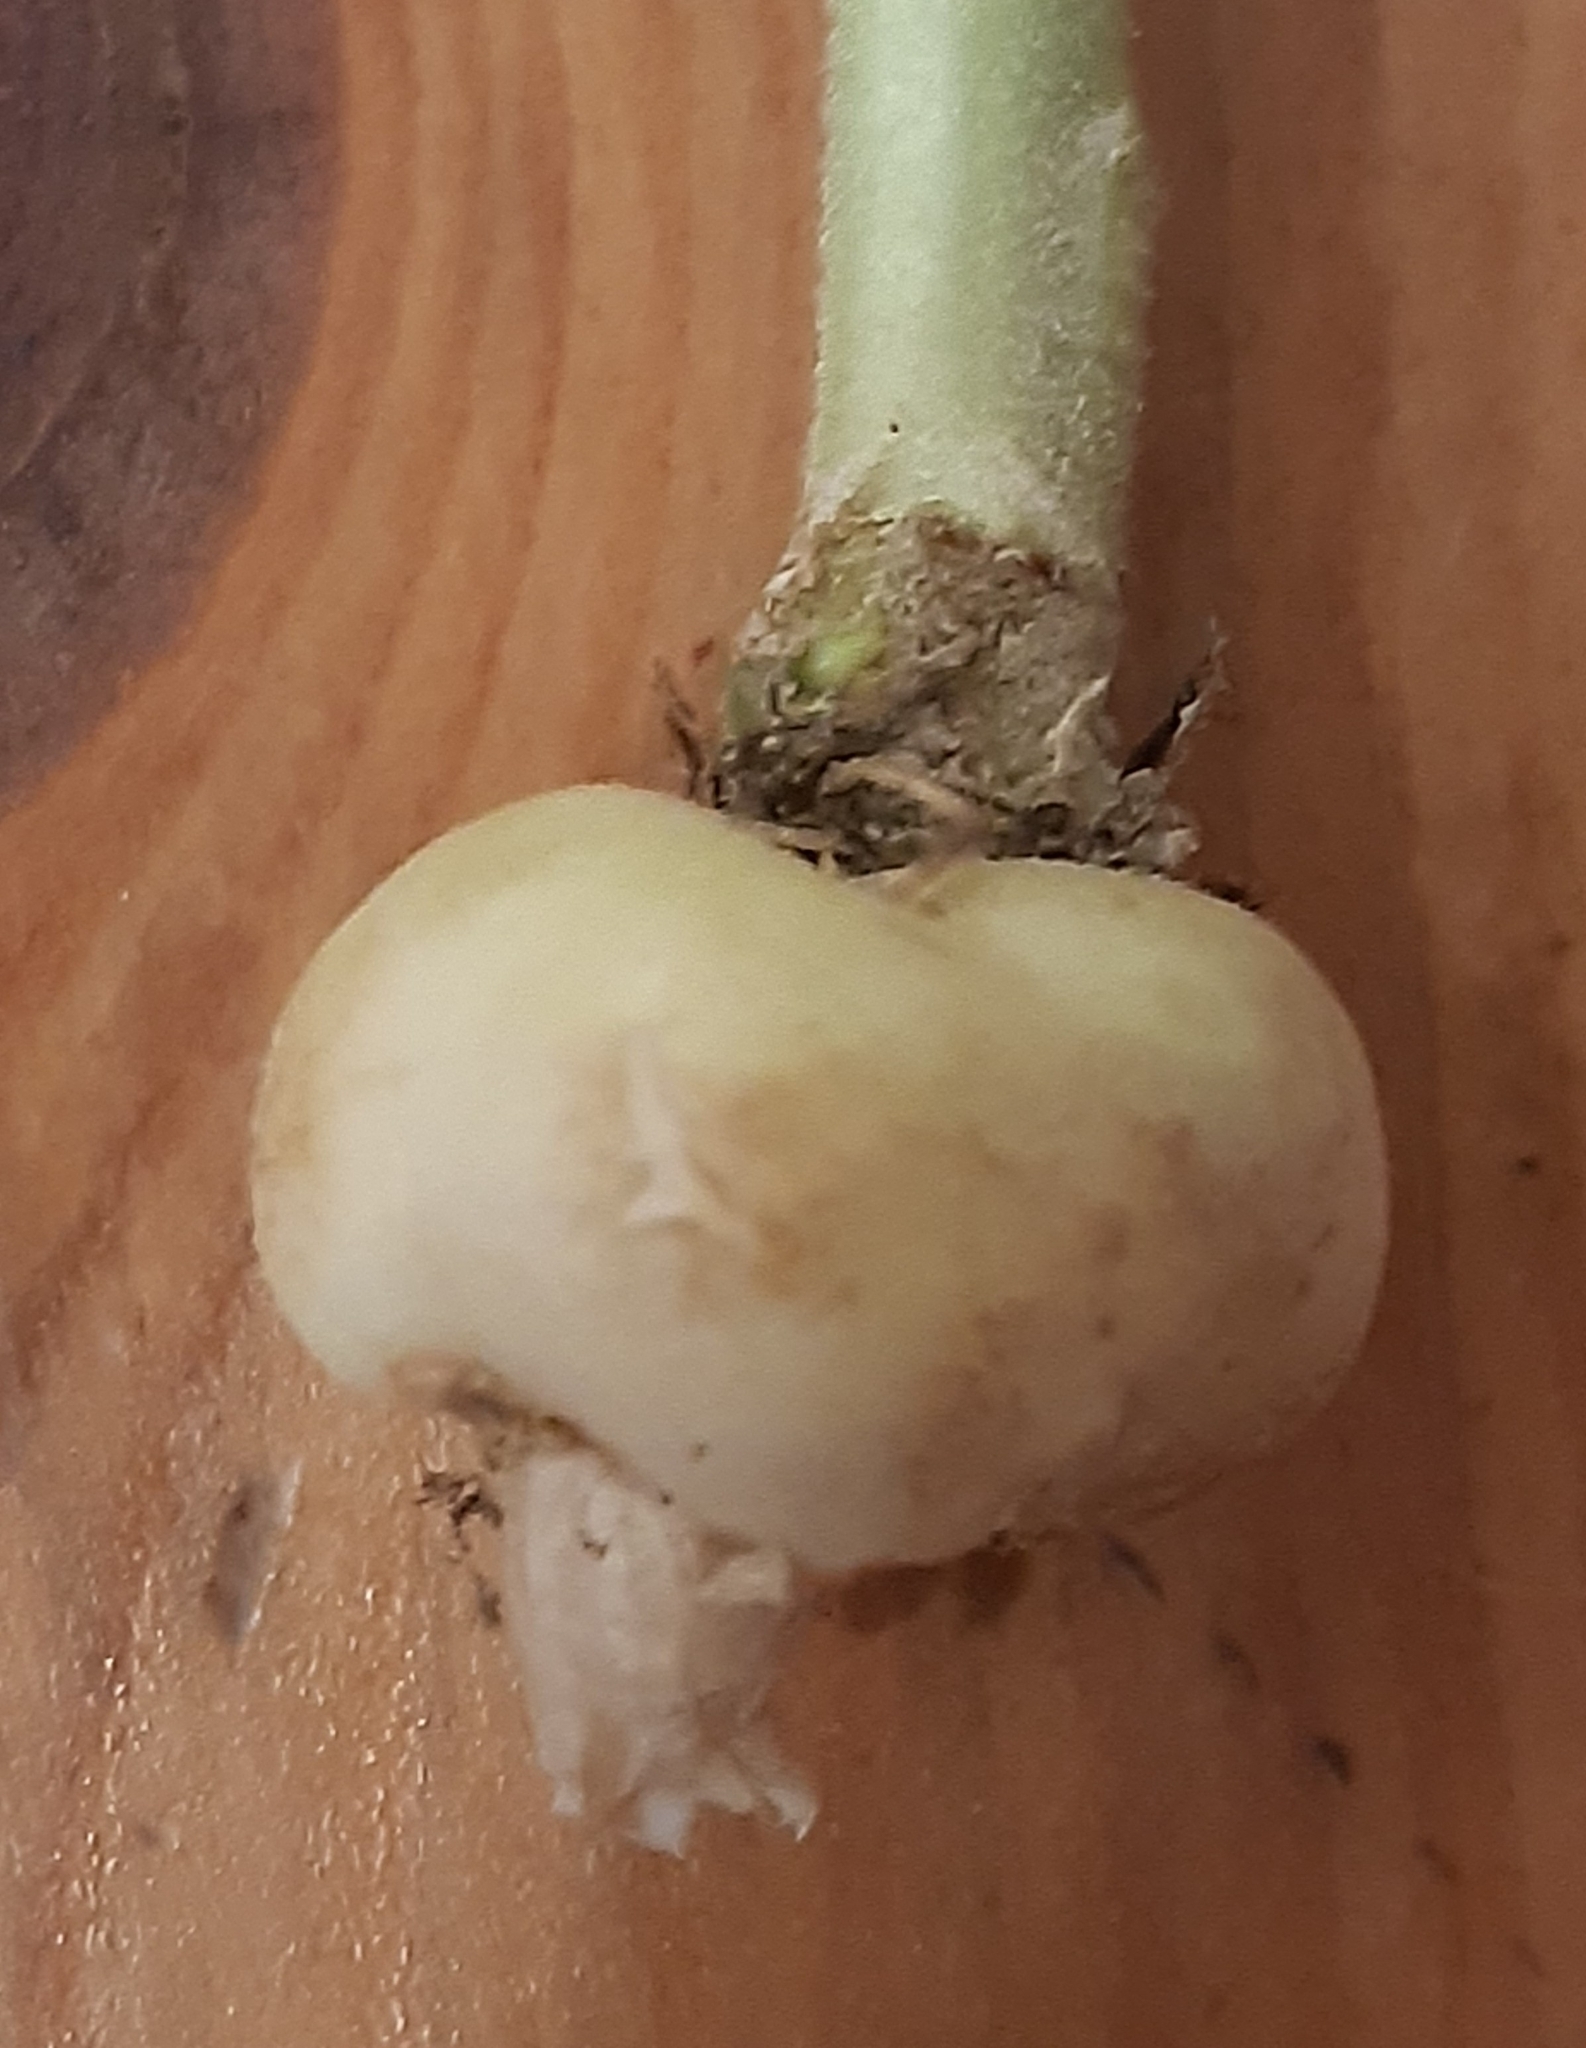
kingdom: Animalia
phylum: Arthropoda
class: Insecta
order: Coleoptera
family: Curculionidae
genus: Ceutorhynchus
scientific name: Ceutorhynchus assimilis
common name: Weevil
